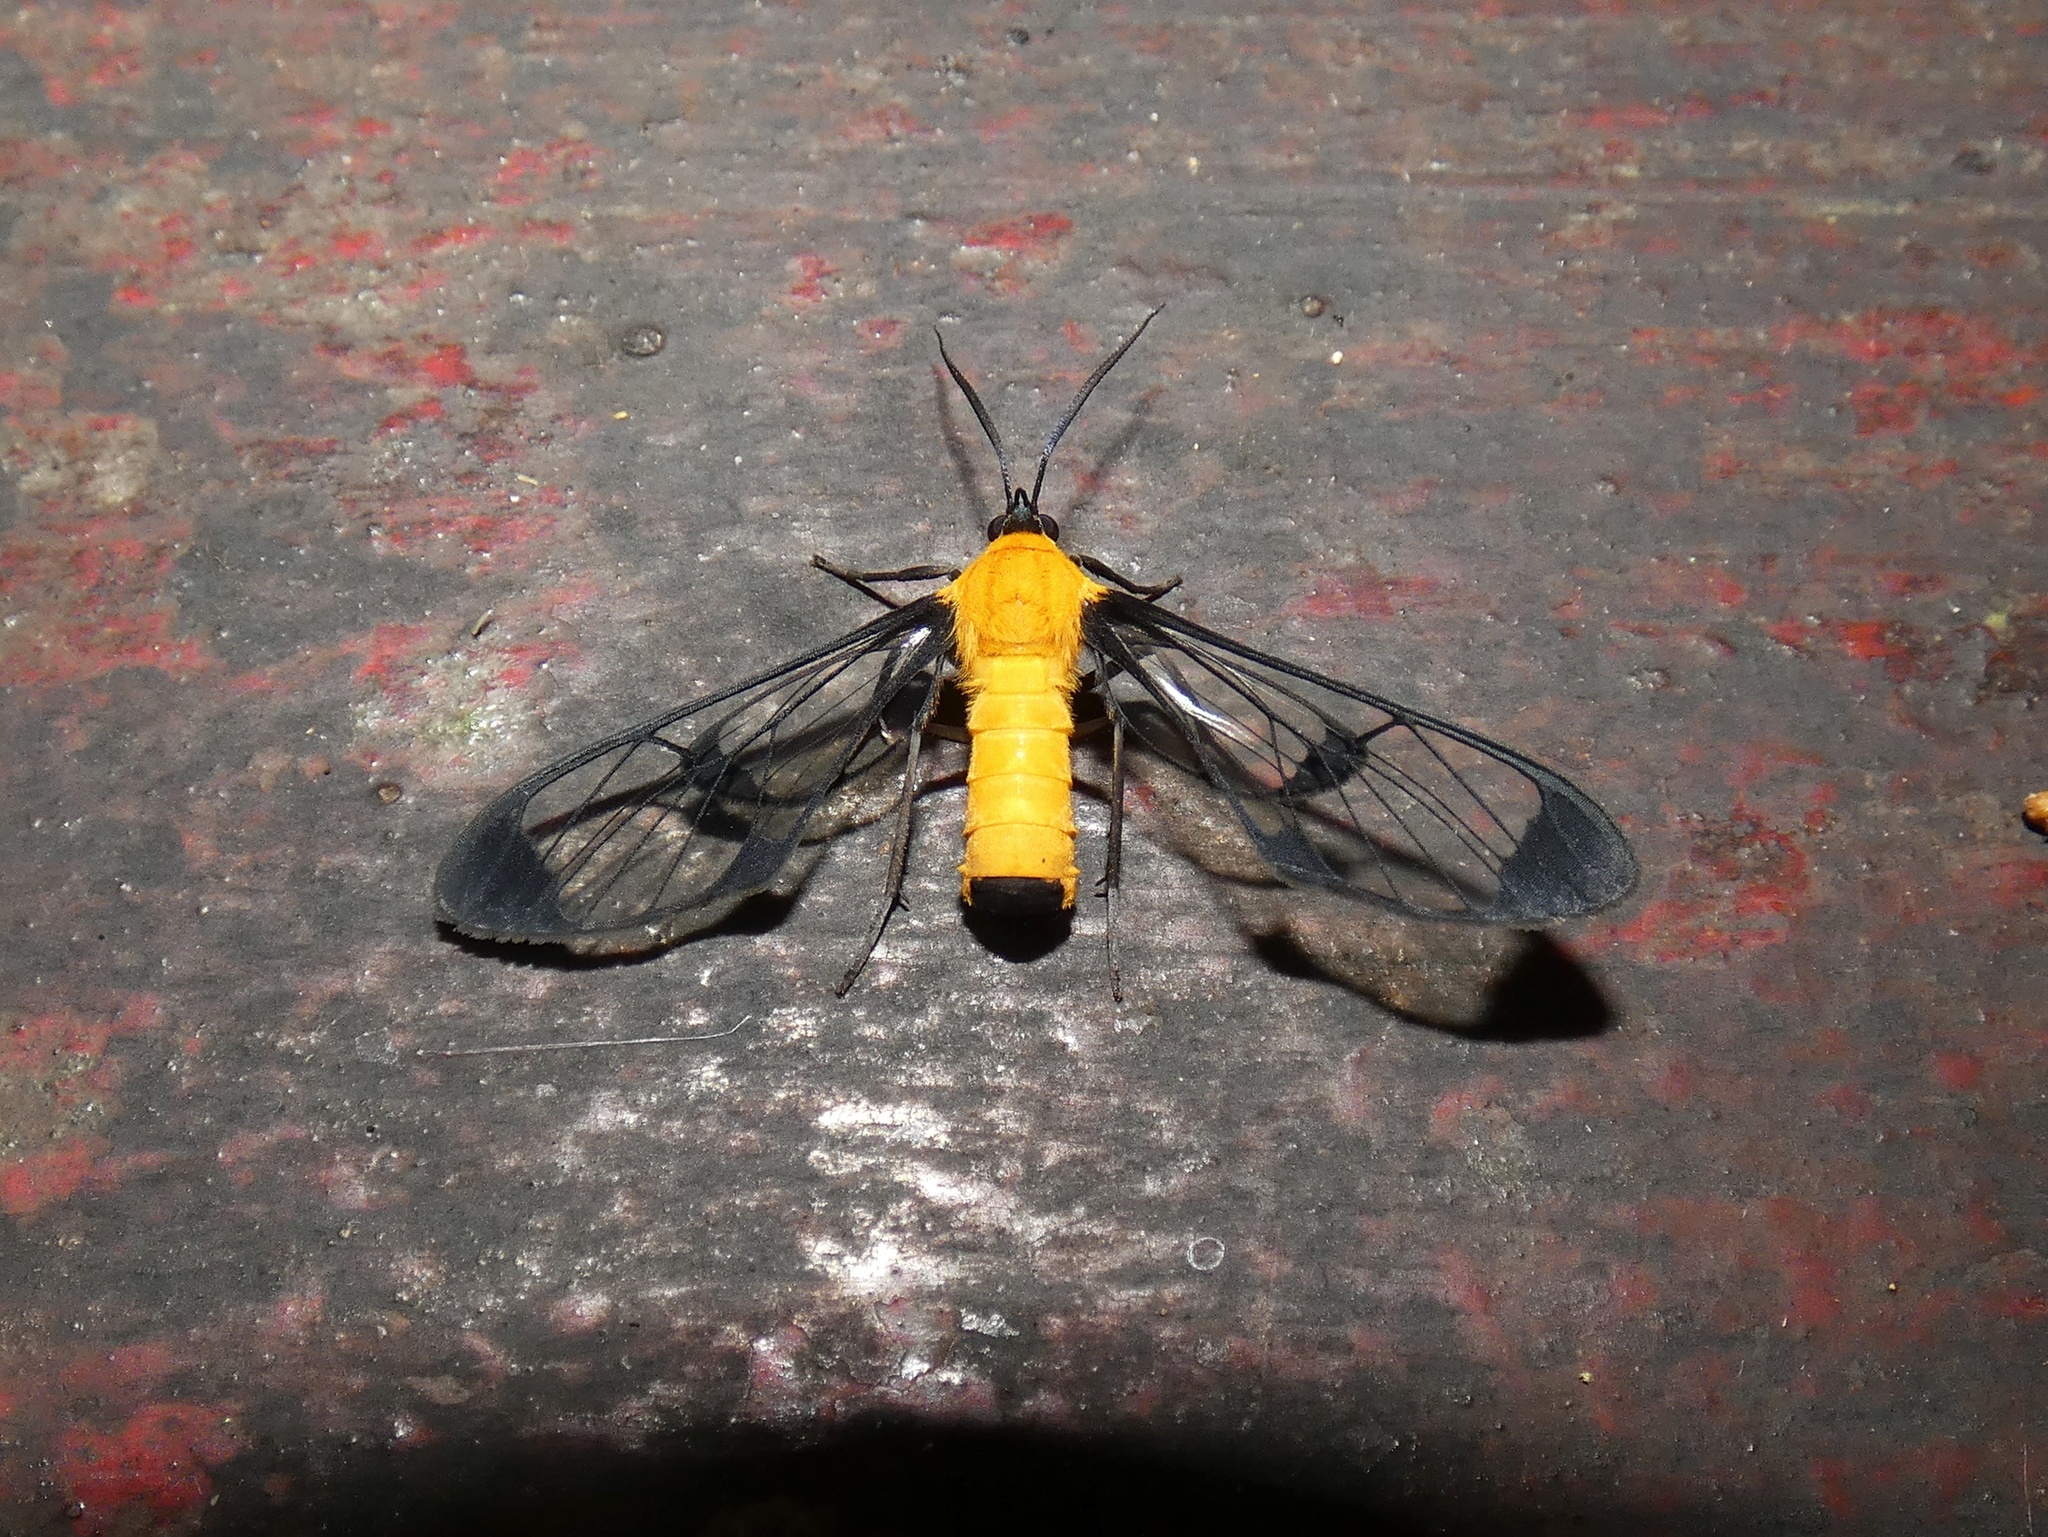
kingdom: Animalia
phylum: Arthropoda
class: Insecta
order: Lepidoptera
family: Erebidae
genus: Cosmosoma
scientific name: Cosmosoma pudica
